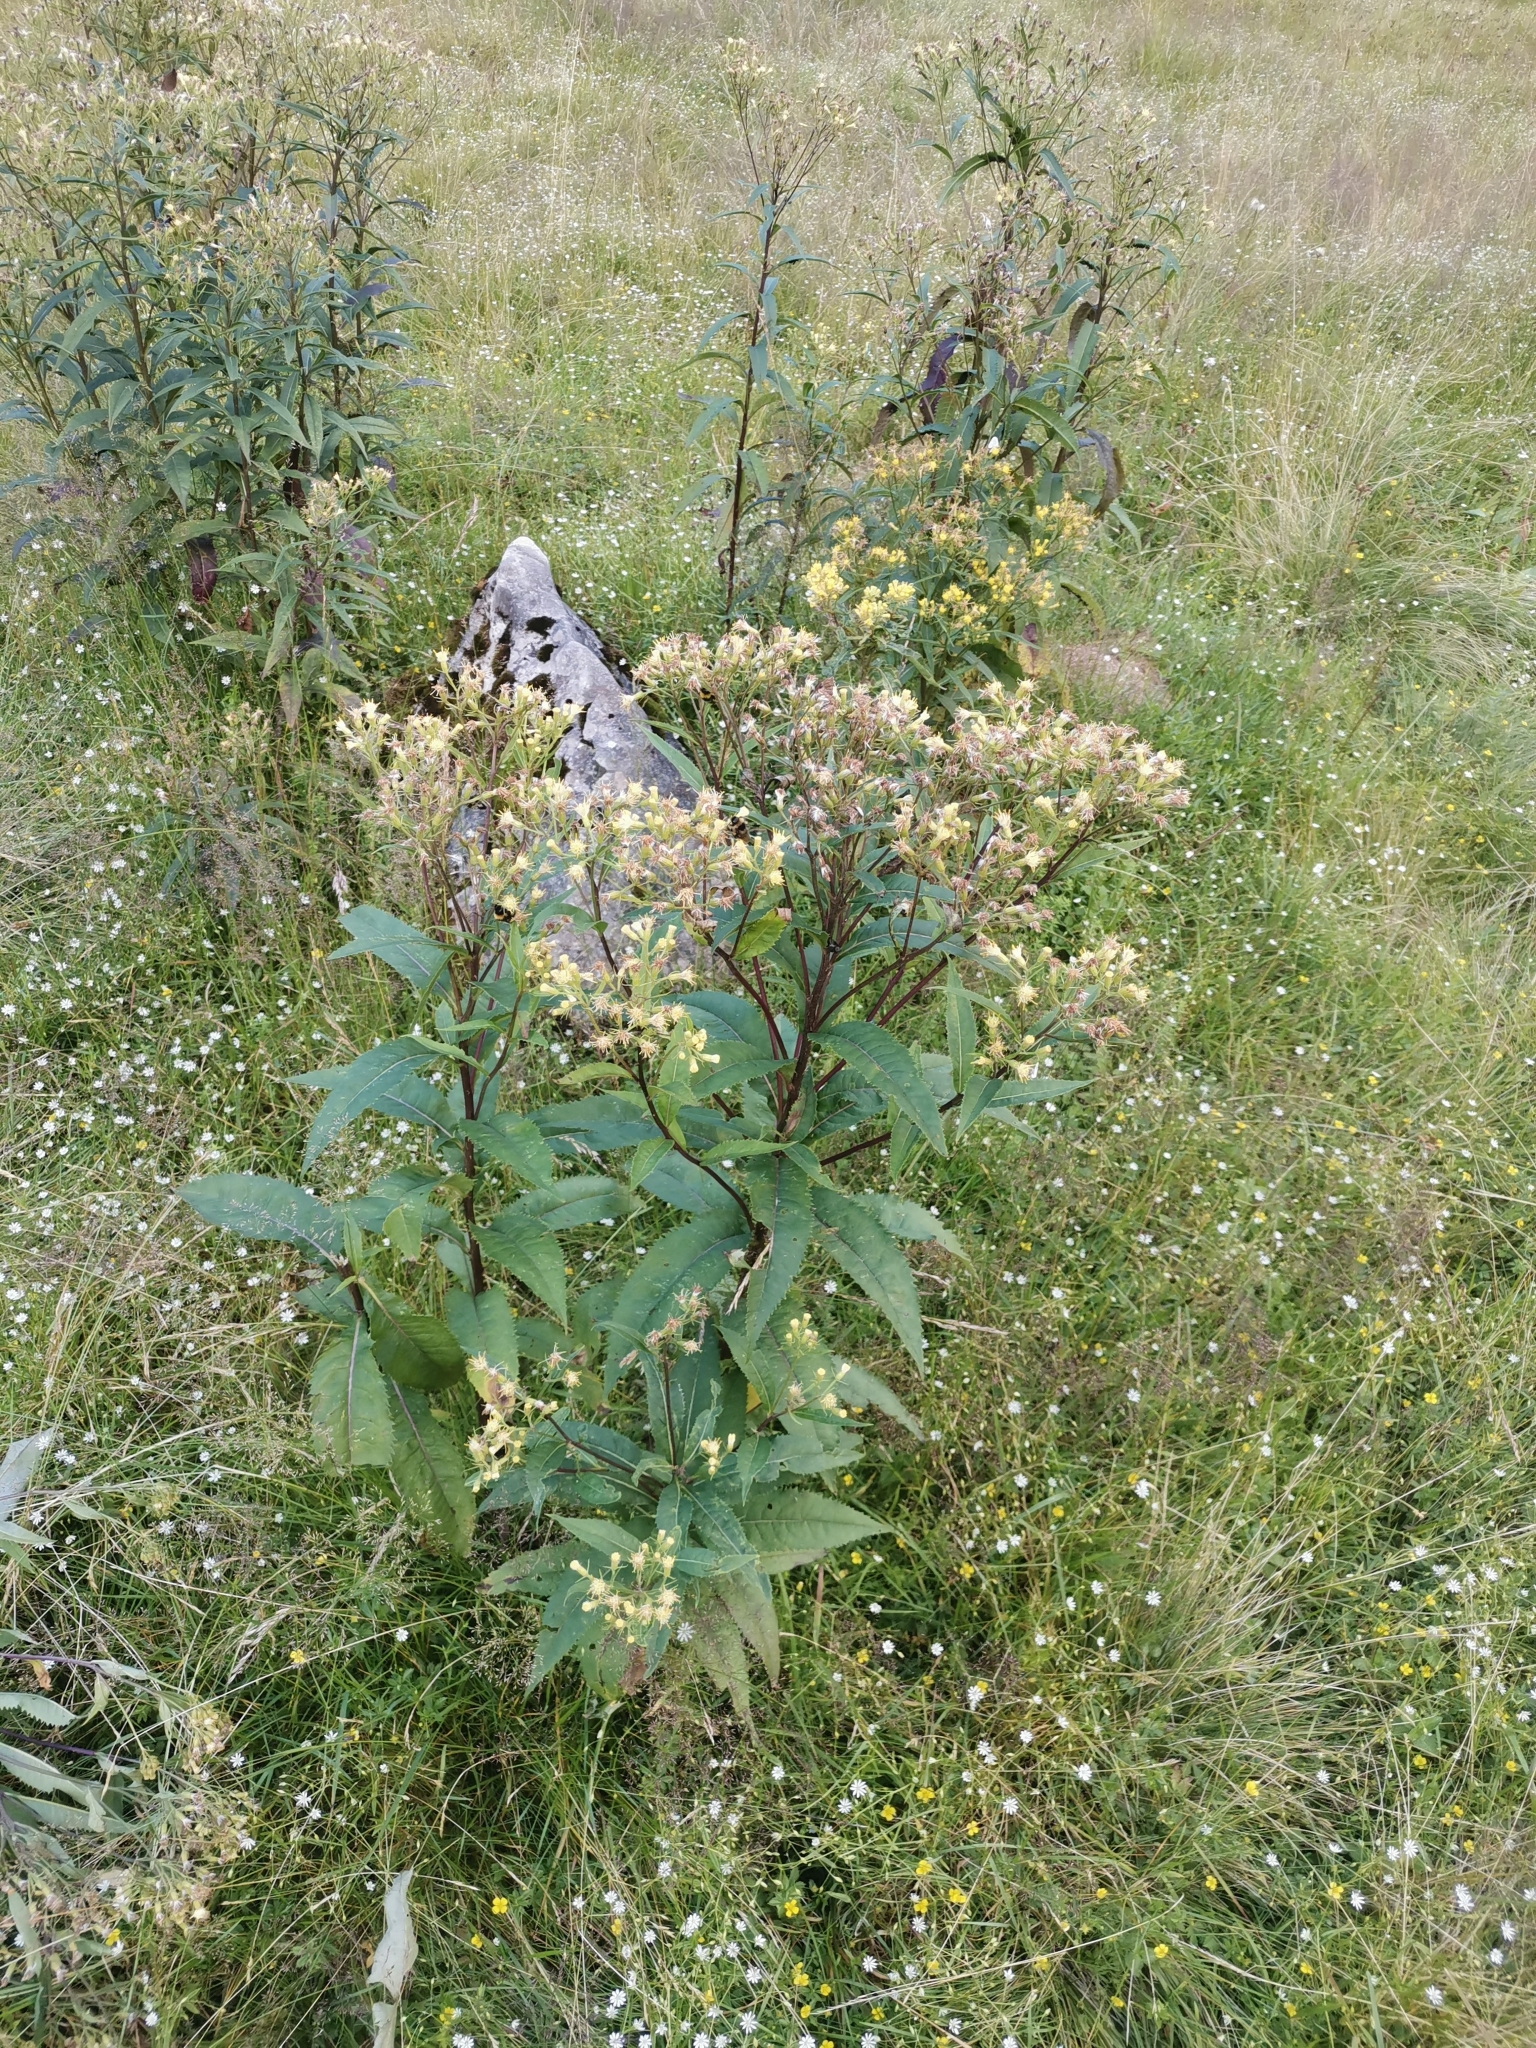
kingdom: Plantae
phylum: Tracheophyta
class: Magnoliopsida
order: Asterales
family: Asteraceae
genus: Senecio
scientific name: Senecio cacaliaster
